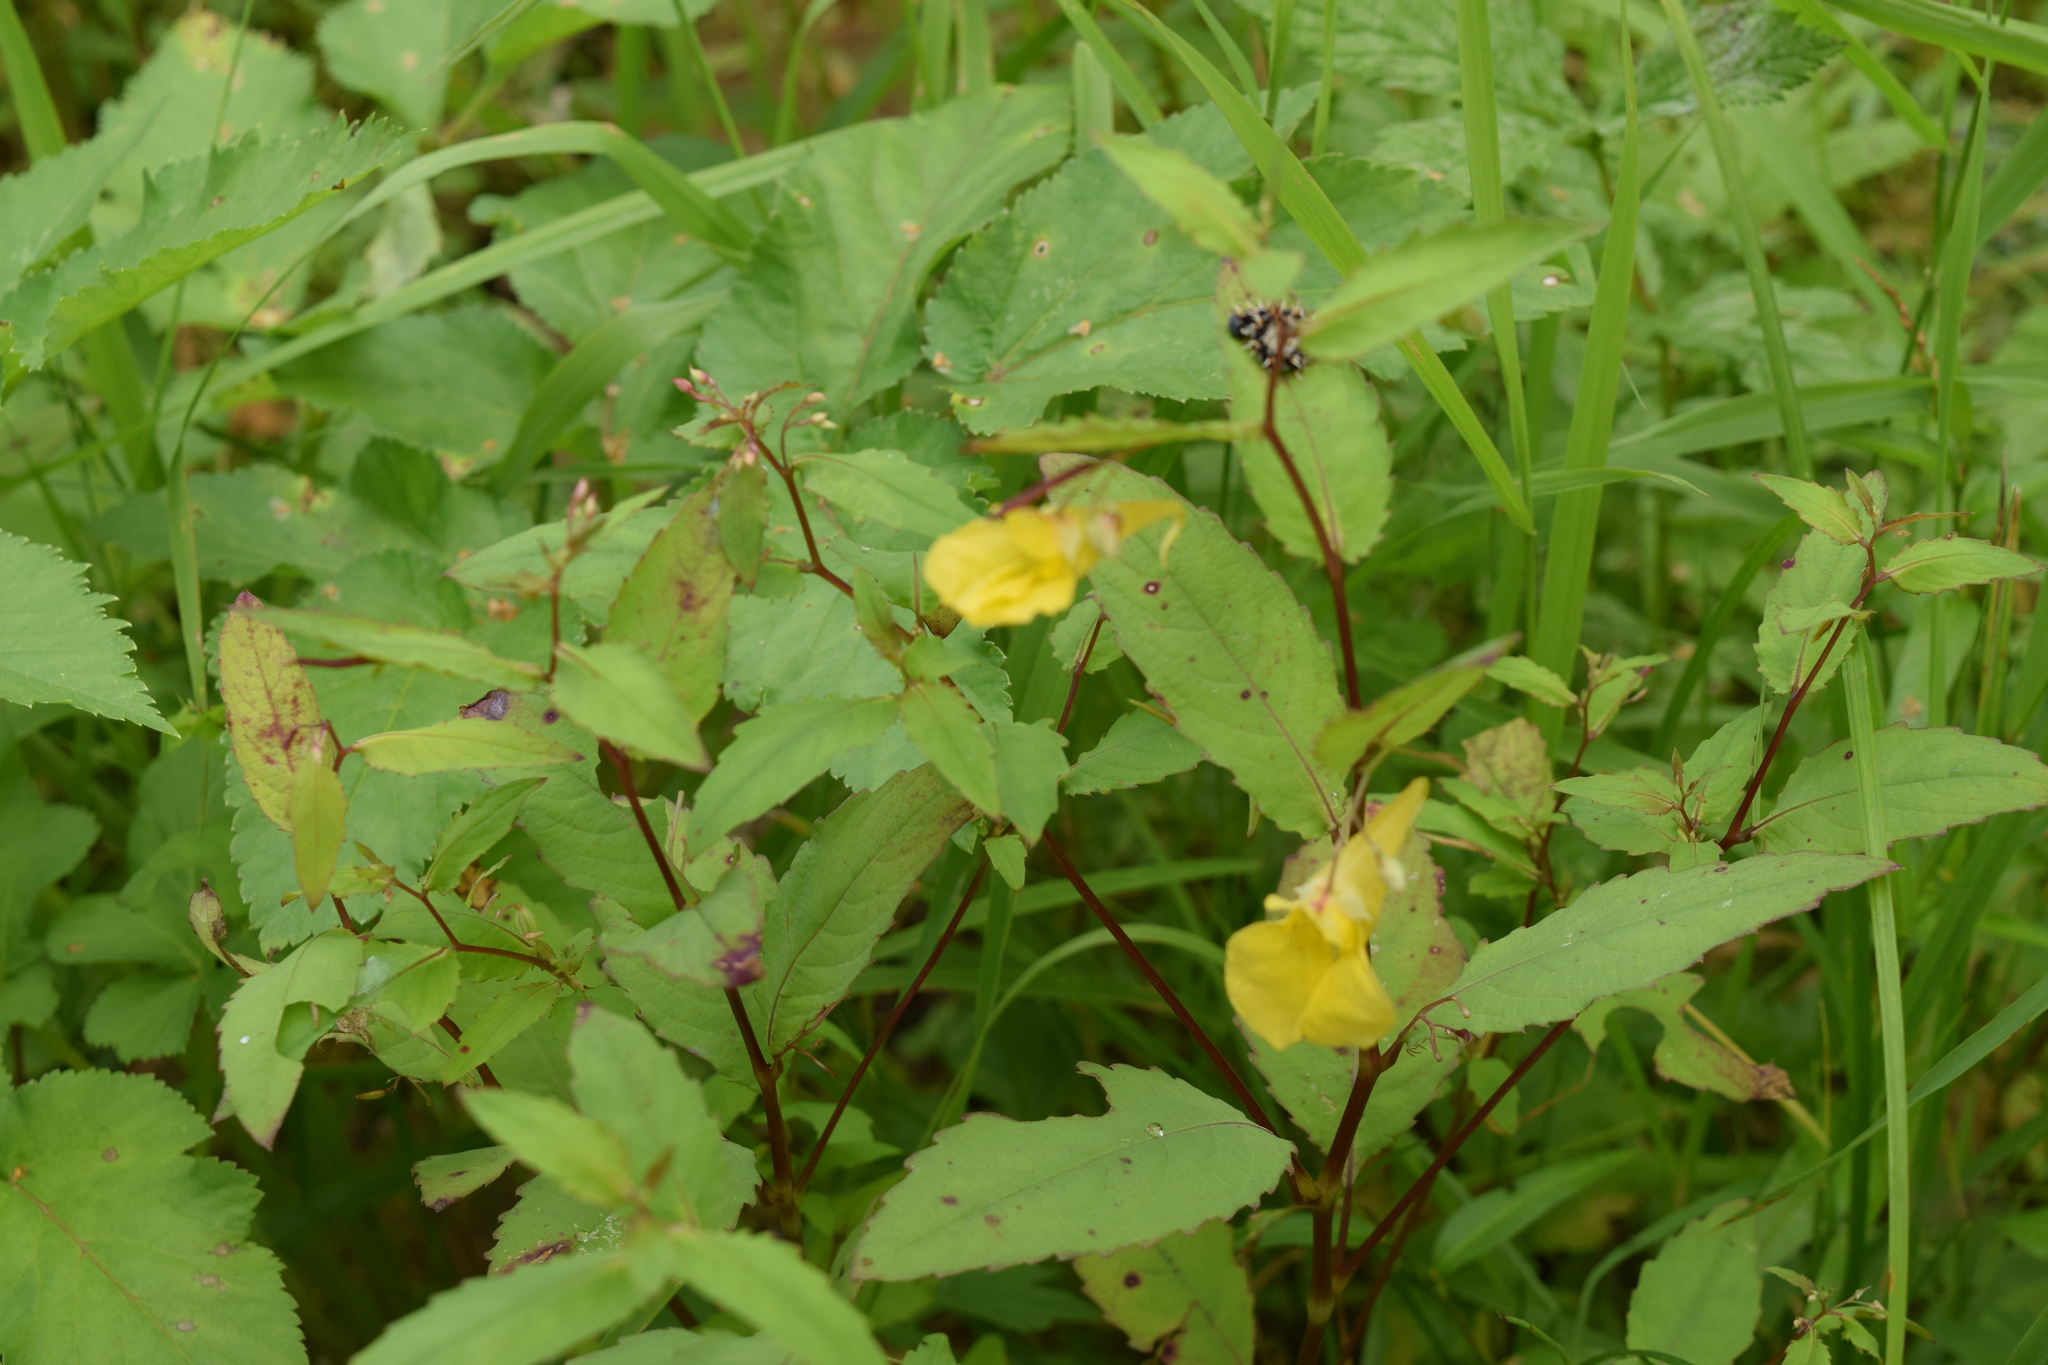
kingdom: Plantae
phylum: Tracheophyta
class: Magnoliopsida
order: Ericales
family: Balsaminaceae
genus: Impatiens
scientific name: Impatiens noli-tangere
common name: Touch-me-not balsam
